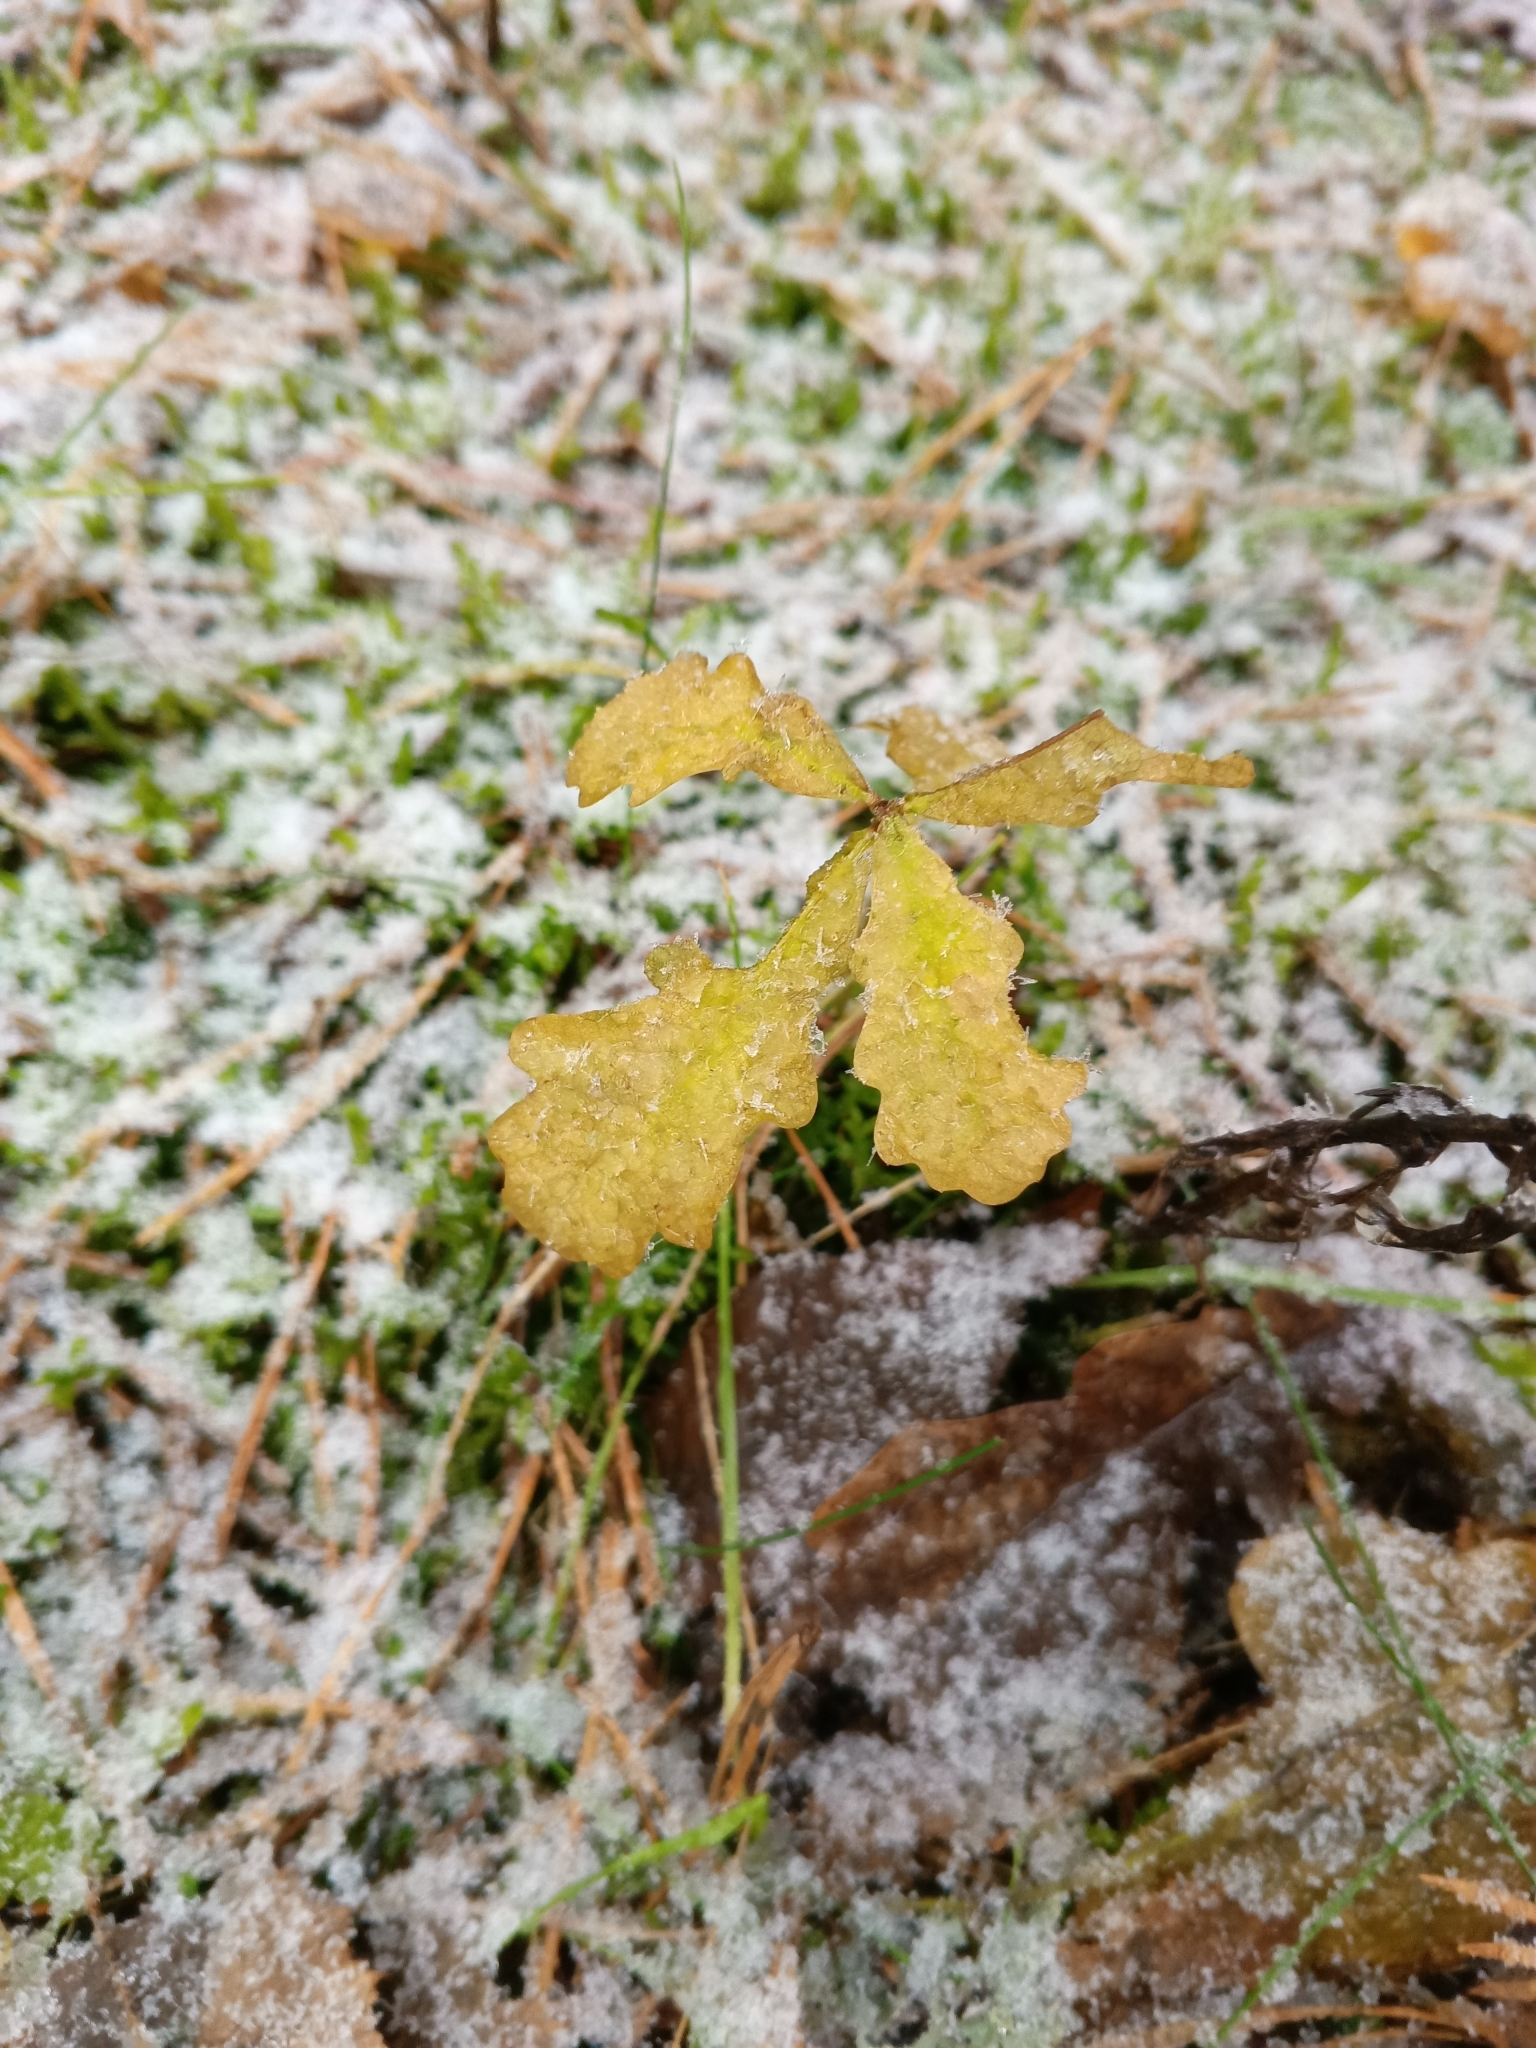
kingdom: Plantae
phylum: Tracheophyta
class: Magnoliopsida
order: Fagales
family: Fagaceae
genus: Quercus
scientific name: Quercus robur
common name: Pedunculate oak
